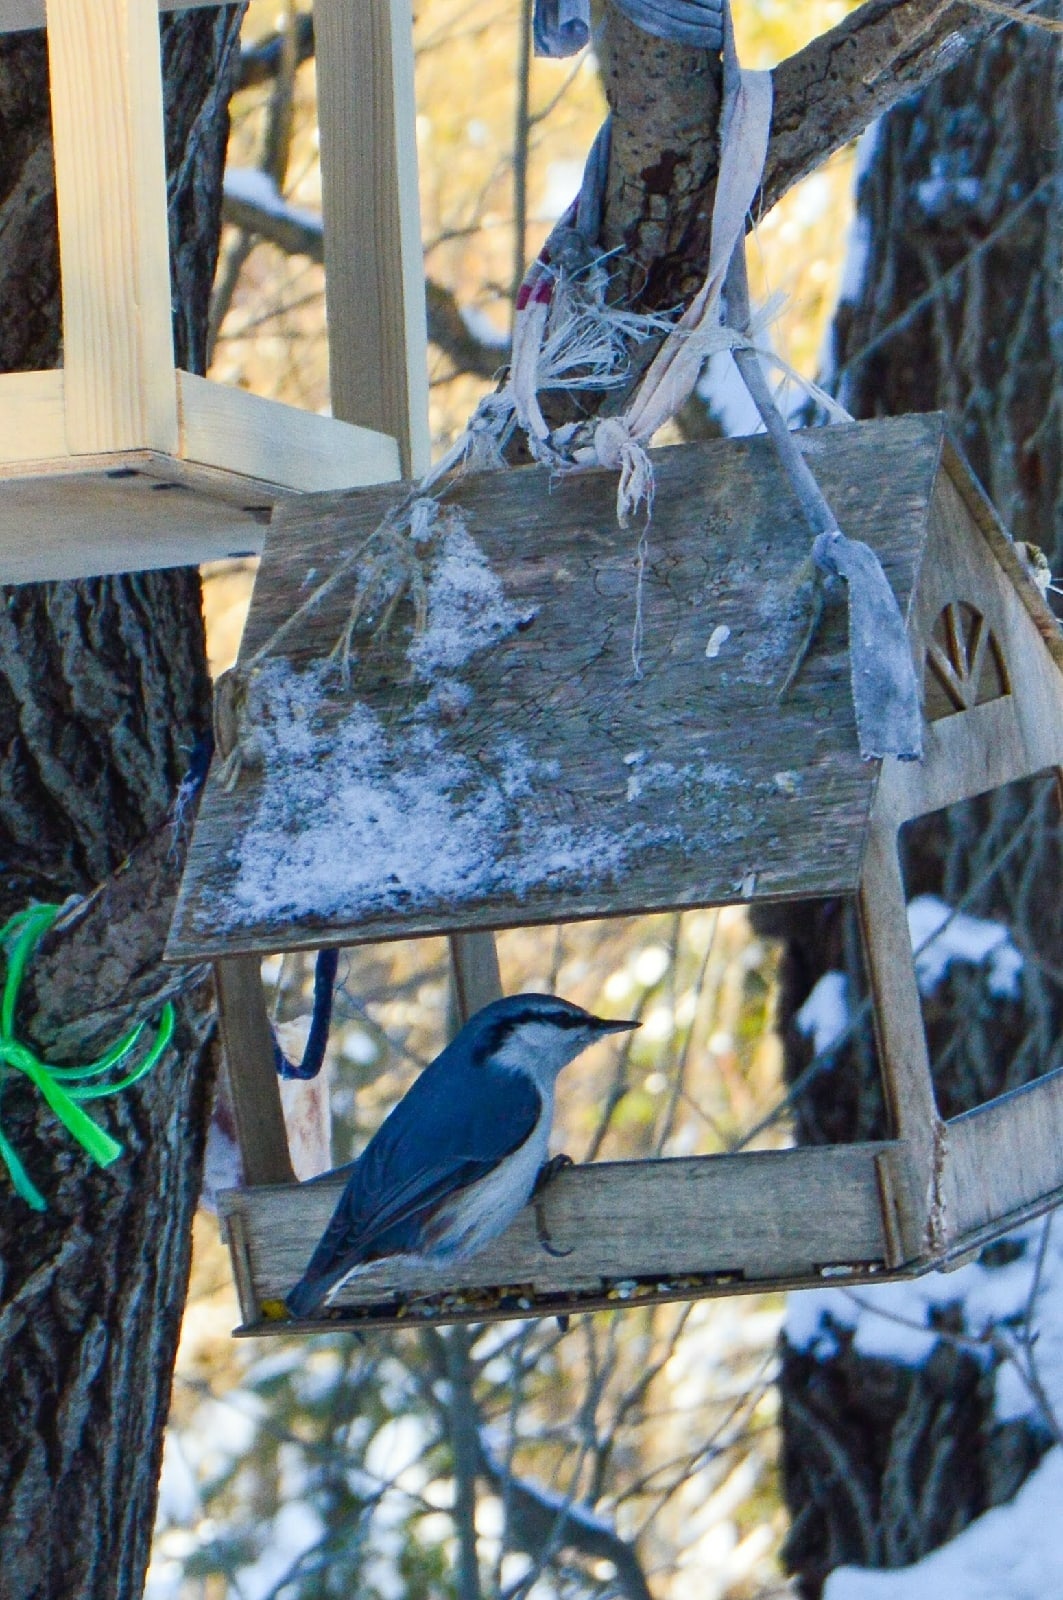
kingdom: Animalia
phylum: Chordata
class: Aves
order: Passeriformes
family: Sittidae
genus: Sitta
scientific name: Sitta europaea
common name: Eurasian nuthatch
